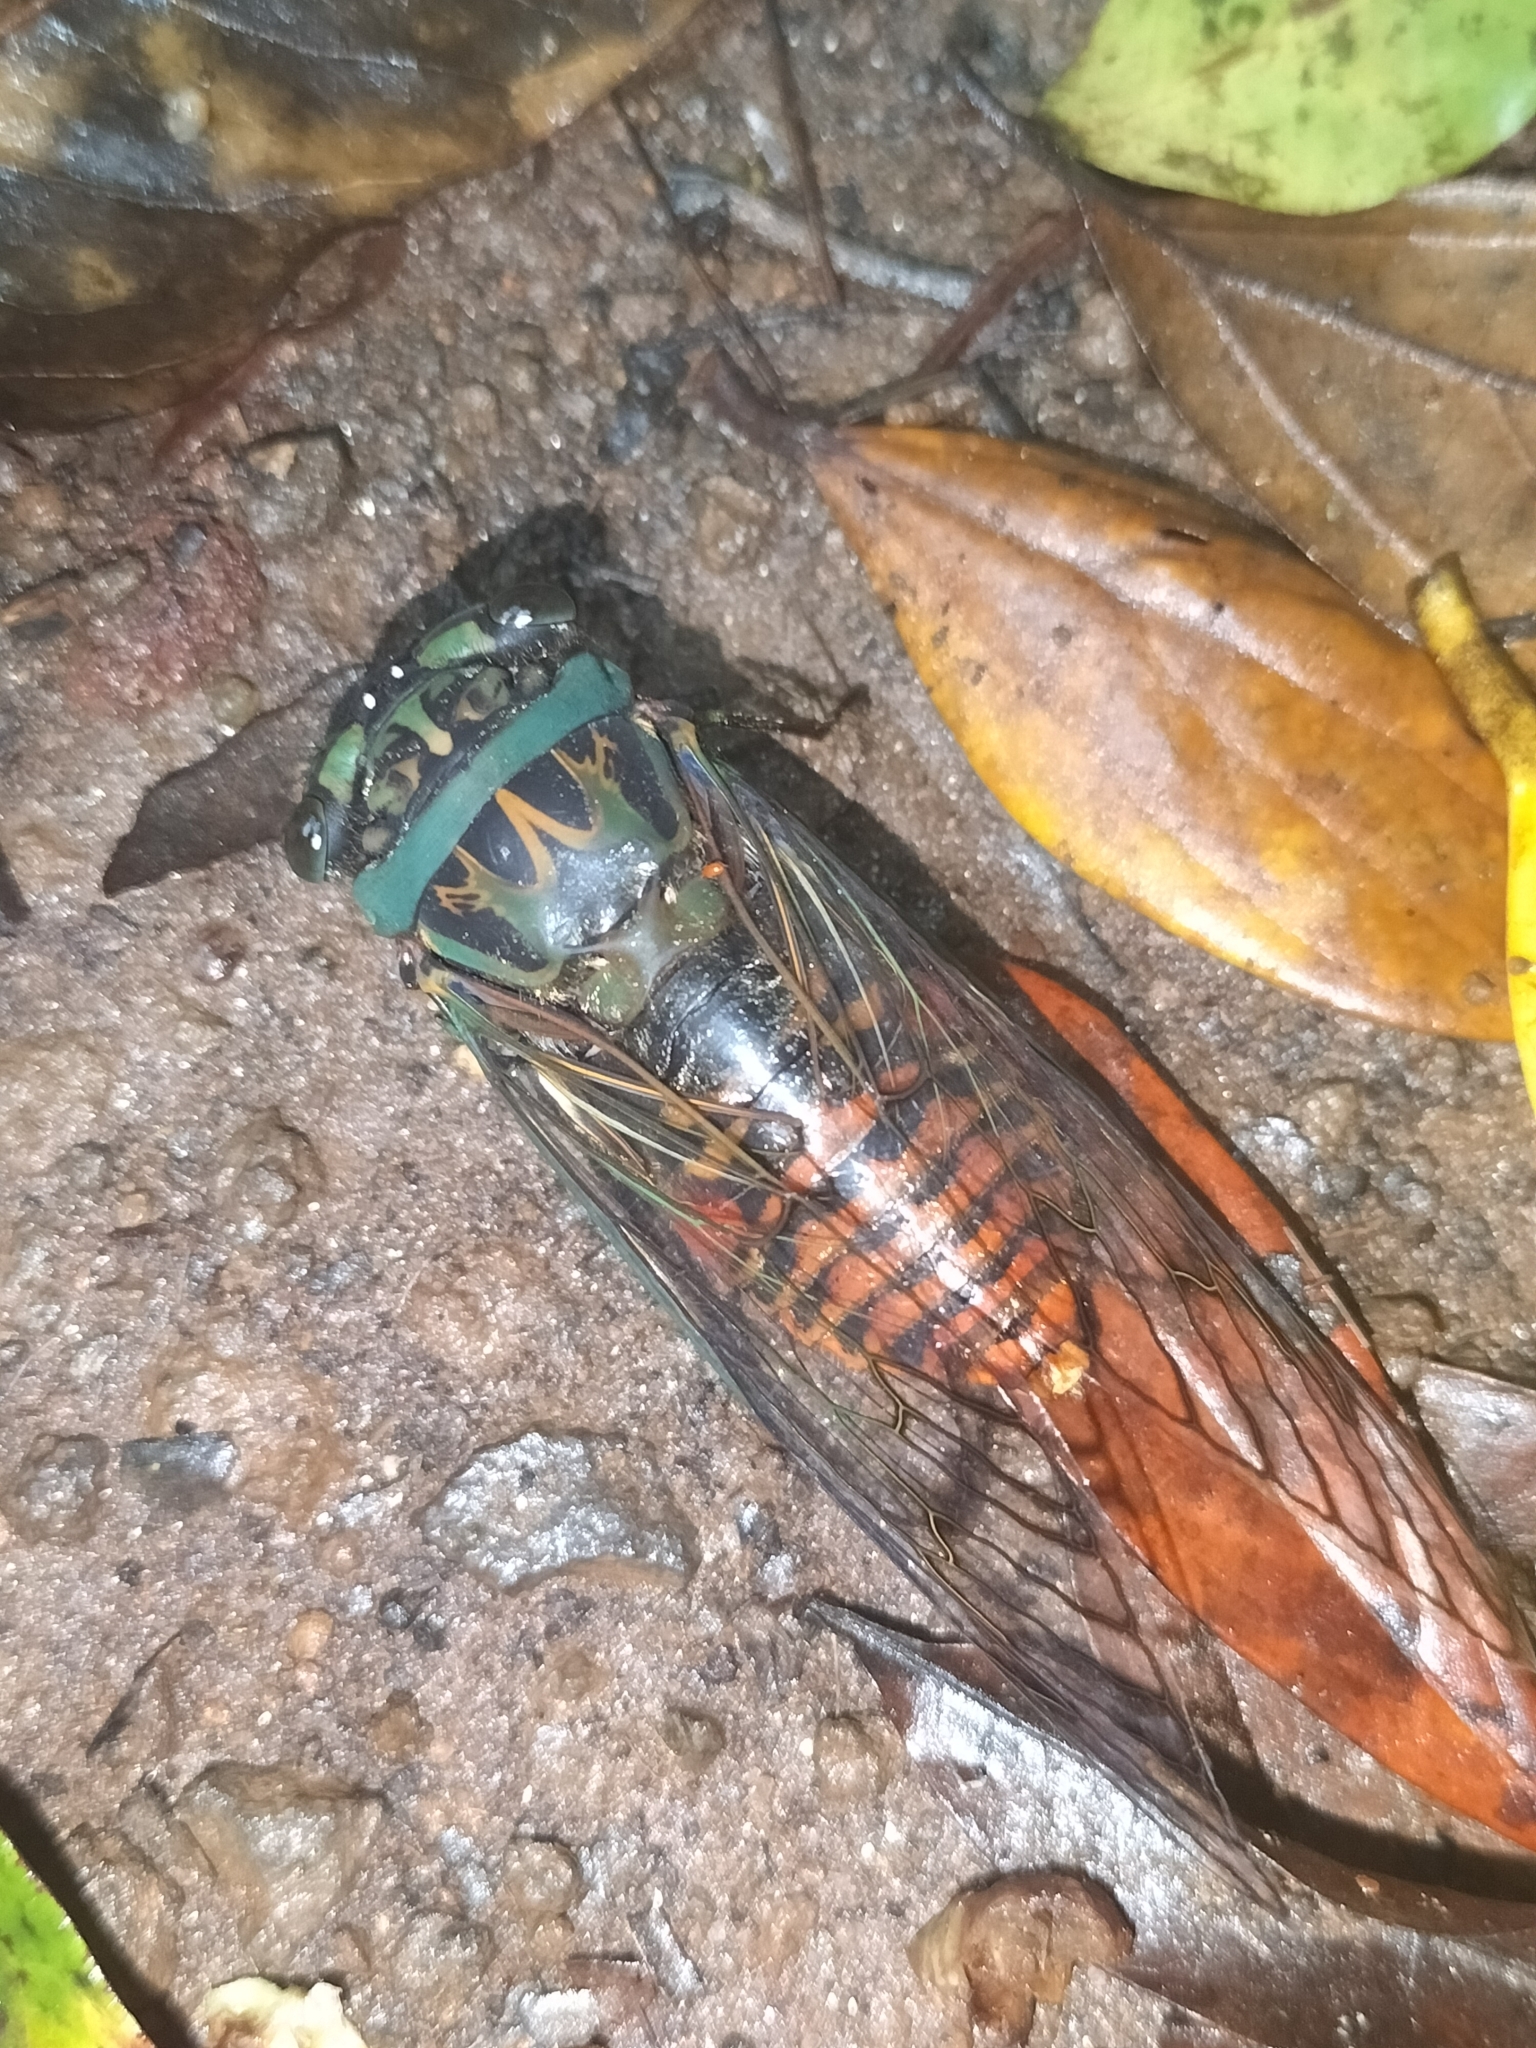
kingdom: Animalia
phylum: Arthropoda
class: Insecta
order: Hemiptera
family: Cicadidae
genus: Psaltoda
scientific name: Psaltoda magnifica
